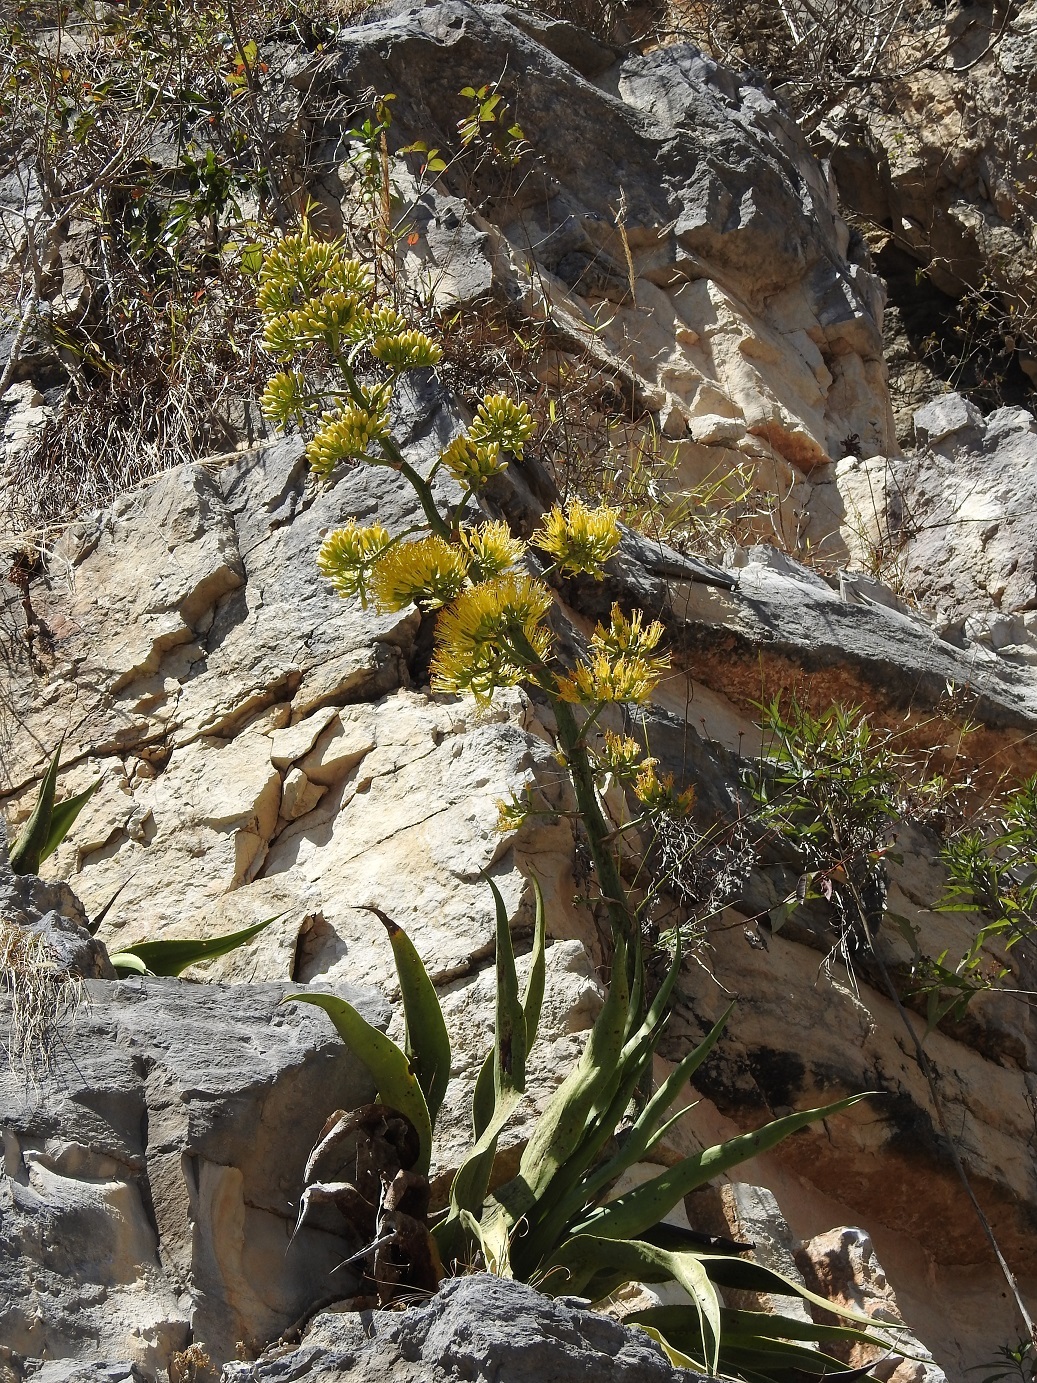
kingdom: Plantae
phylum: Tracheophyta
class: Liliopsida
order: Asparagales
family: Asparagaceae
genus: Agave
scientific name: Agave kewensis
